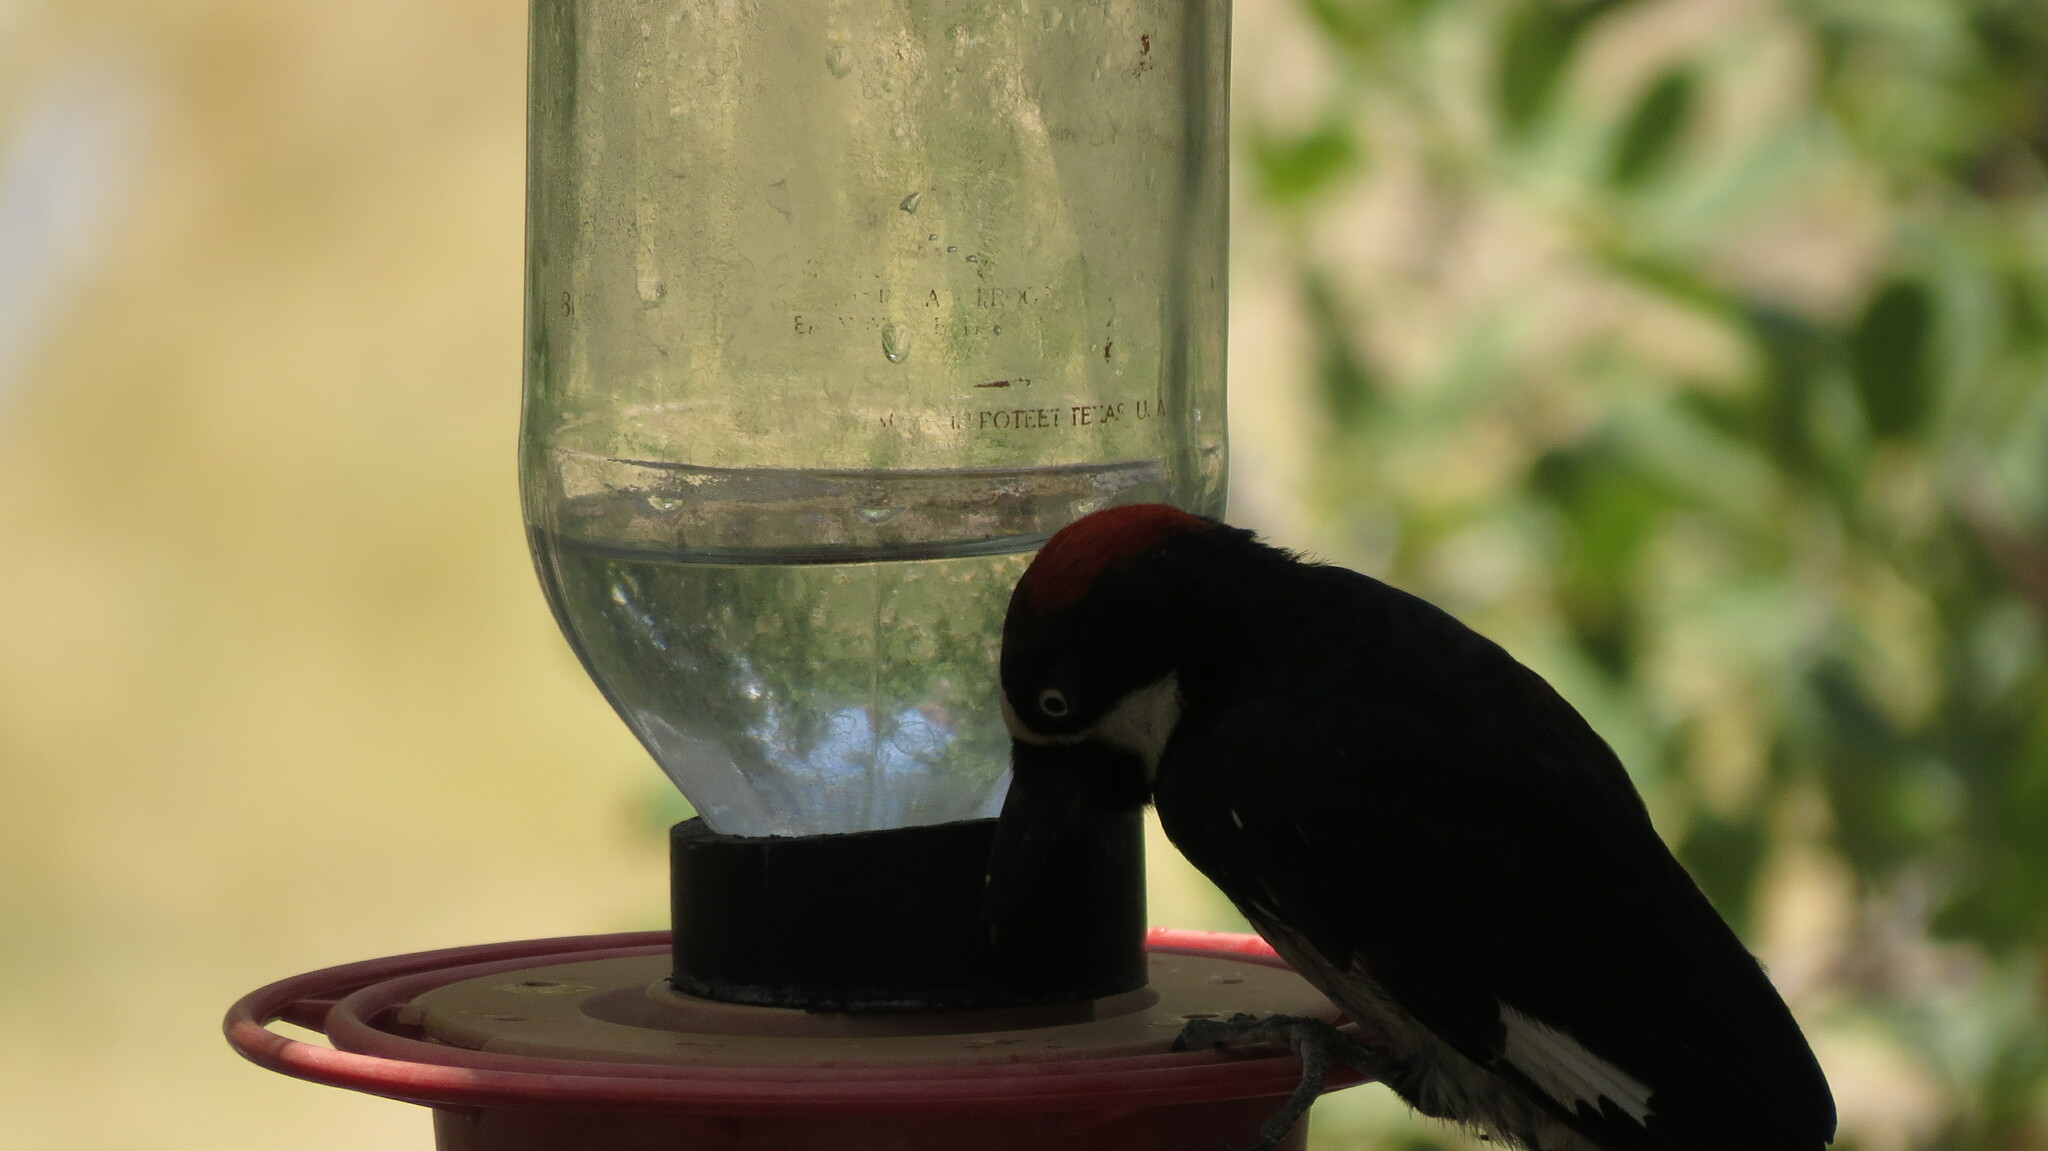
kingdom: Animalia
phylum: Chordata
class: Aves
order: Piciformes
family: Picidae
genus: Melanerpes
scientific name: Melanerpes formicivorus
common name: Acorn woodpecker
